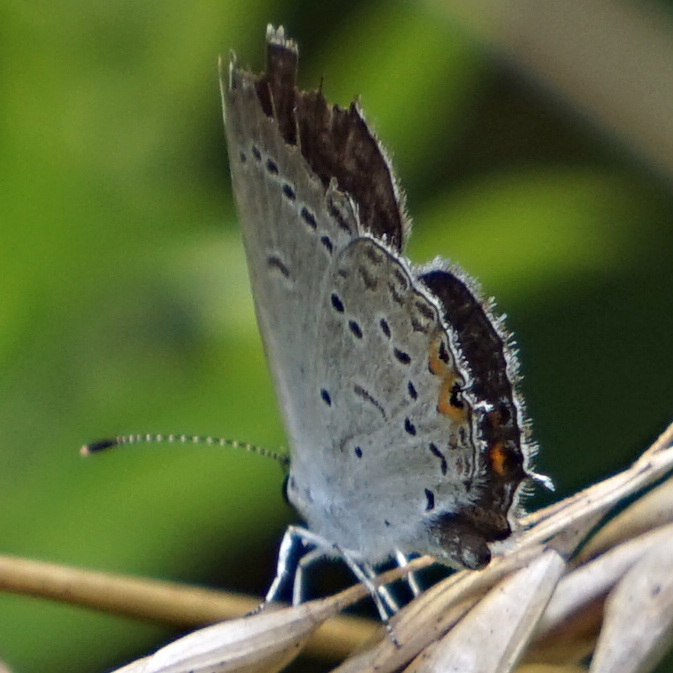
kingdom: Animalia
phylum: Arthropoda
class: Insecta
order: Lepidoptera
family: Lycaenidae
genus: Elkalyce
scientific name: Elkalyce comyntas
